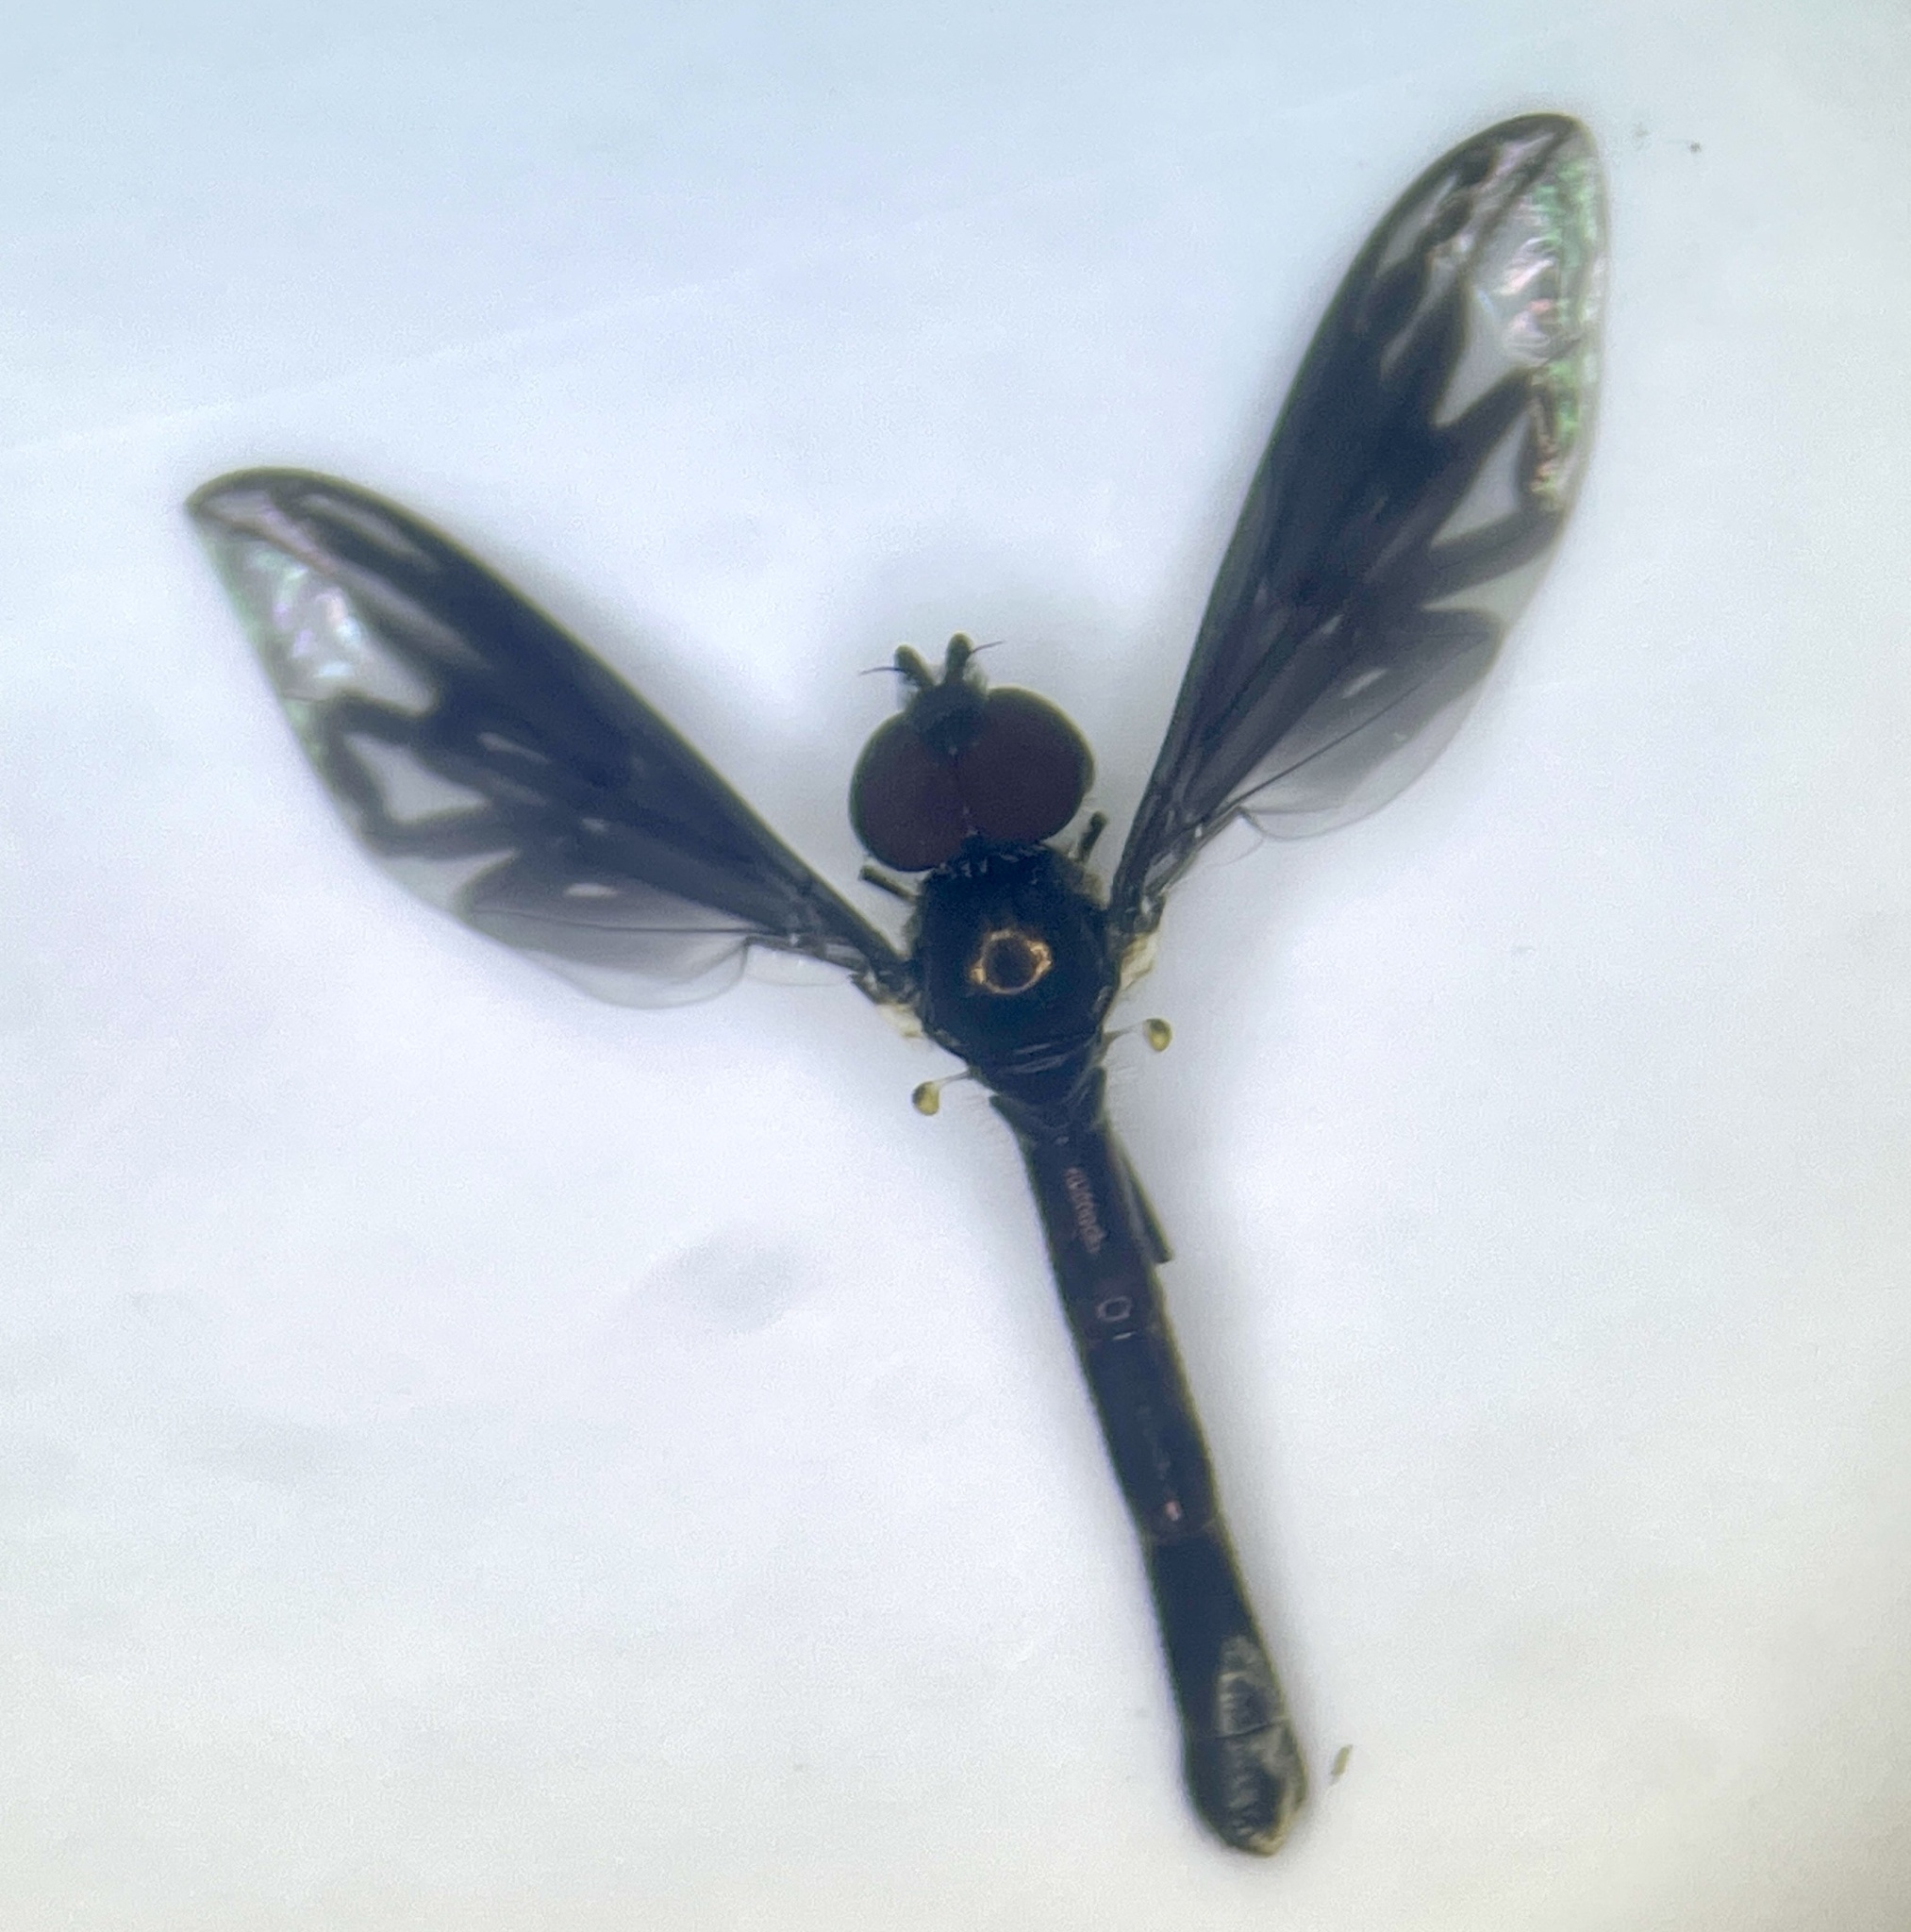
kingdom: Animalia
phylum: Arthropoda
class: Insecta
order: Diptera
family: Syrphidae
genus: Ocyptamus
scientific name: Ocyptamus fuscipennis
